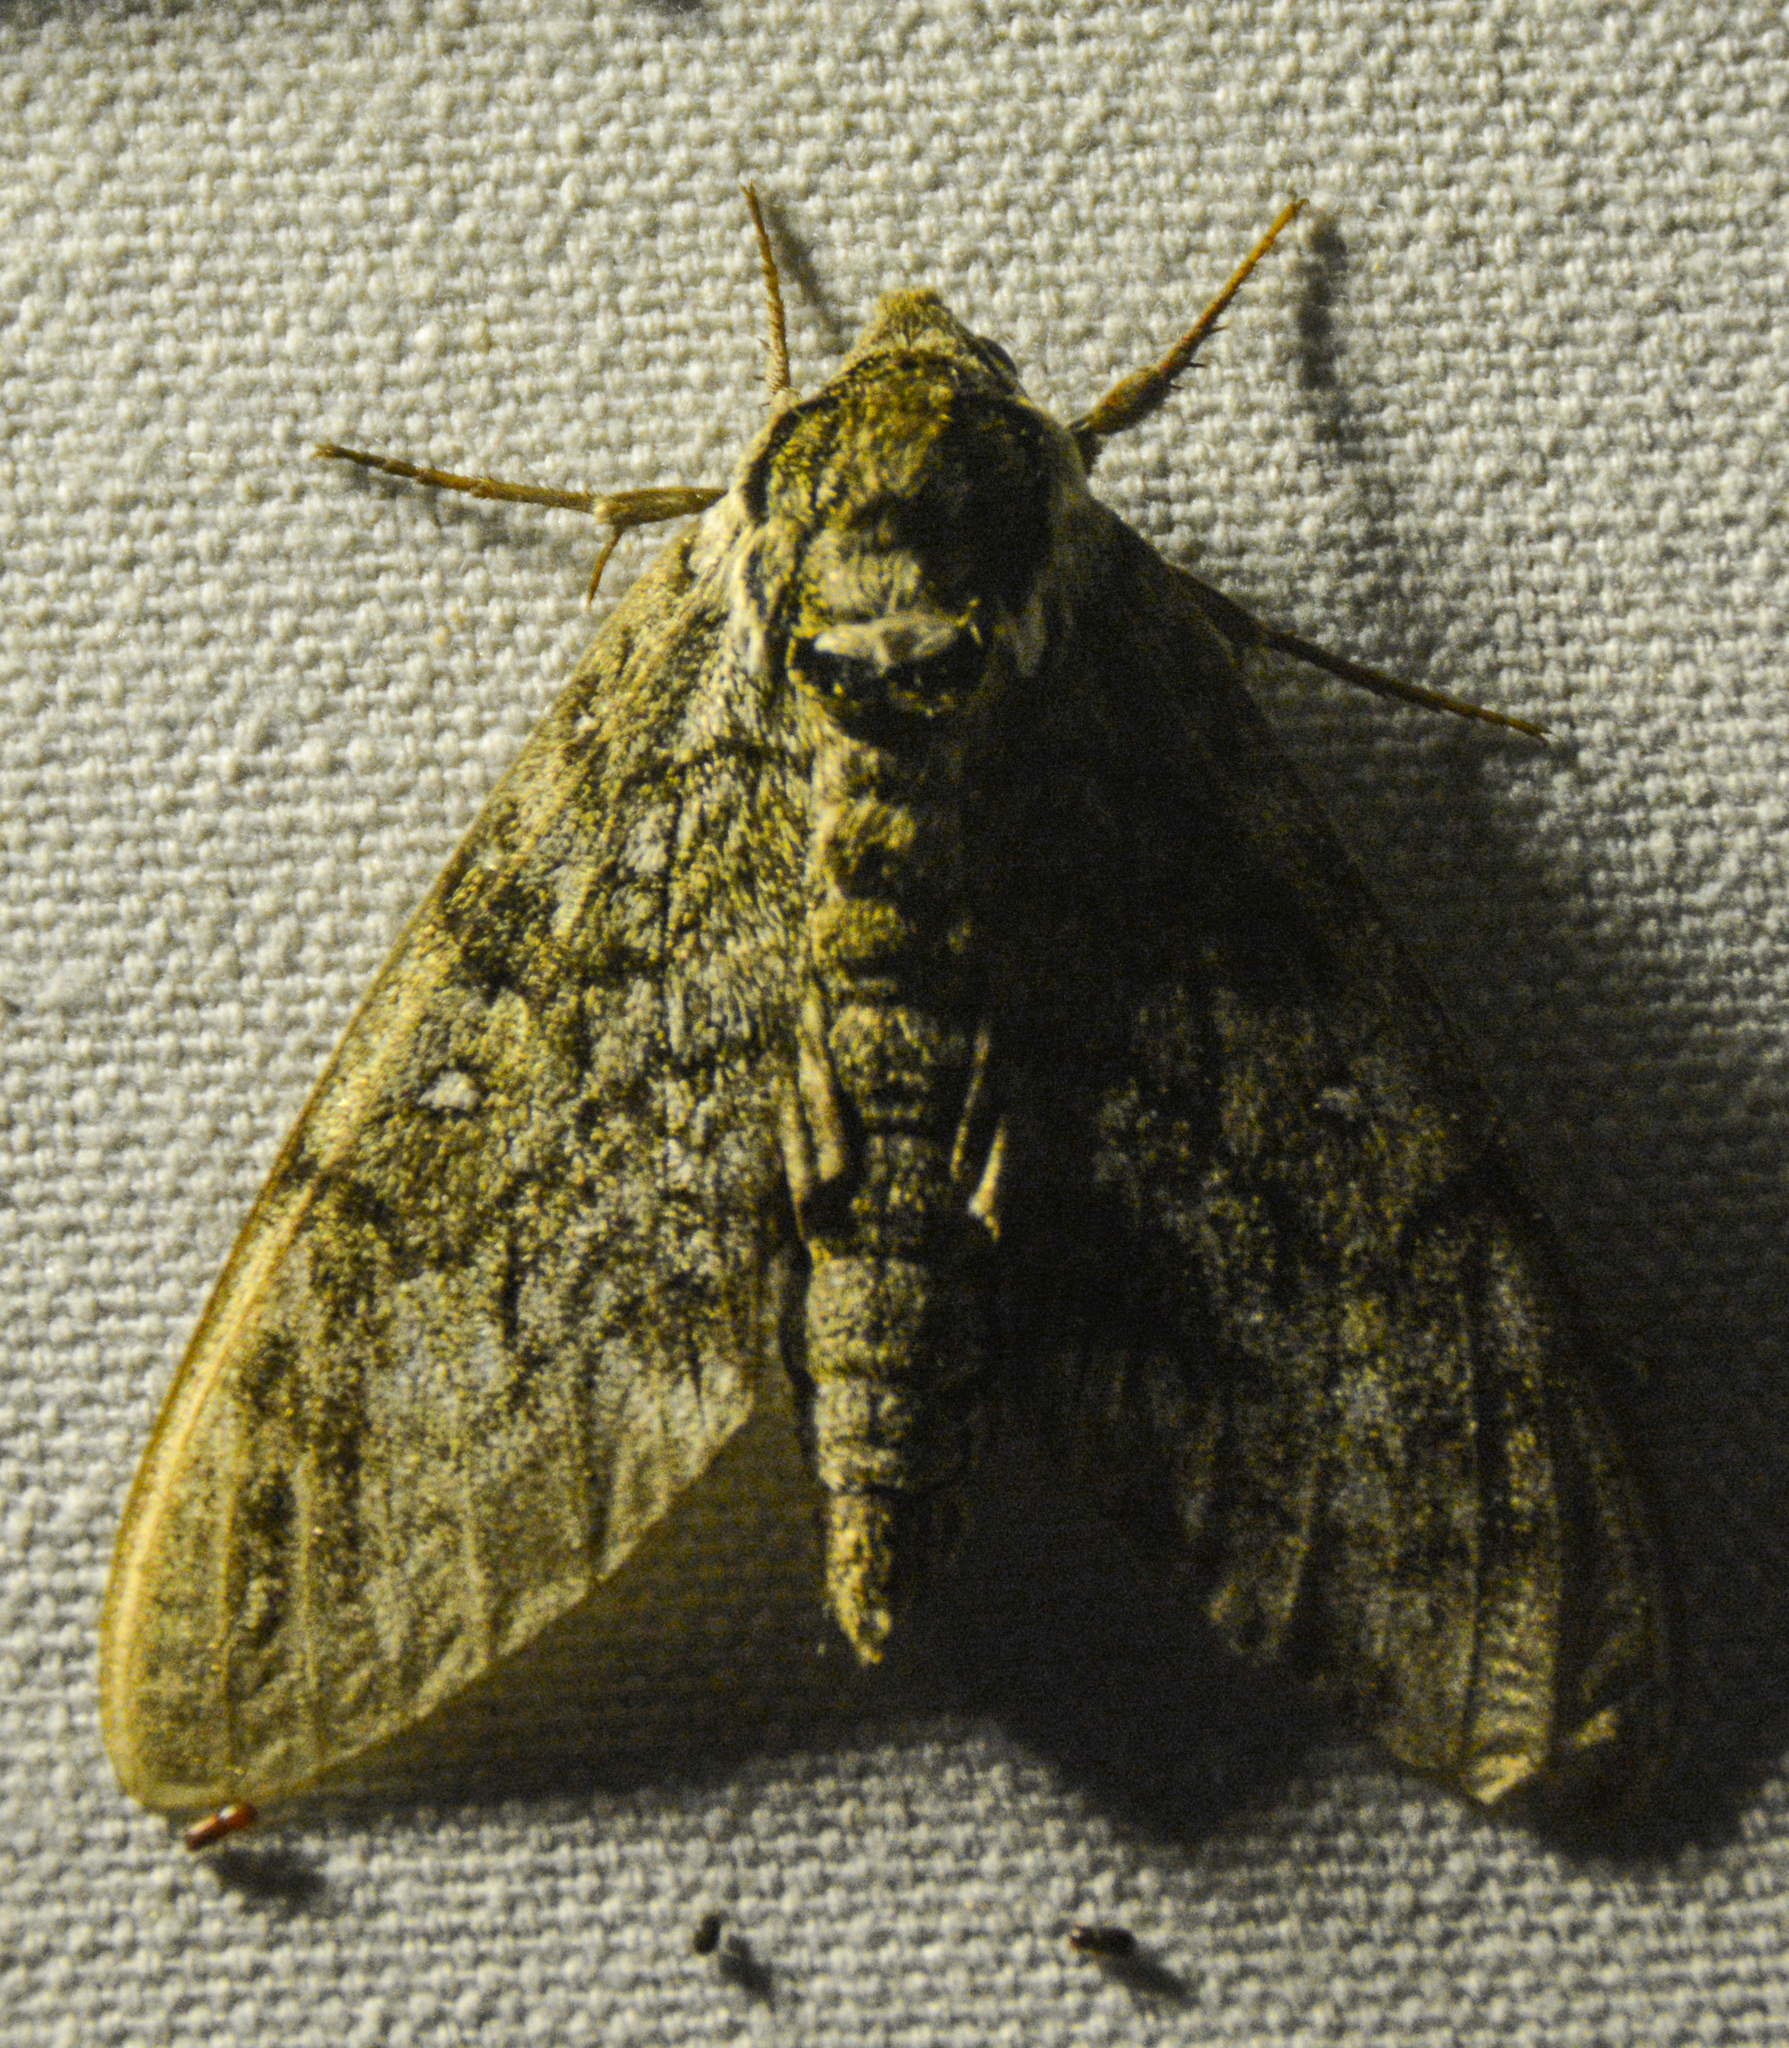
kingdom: Animalia
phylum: Arthropoda
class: Insecta
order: Lepidoptera
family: Sphingidae
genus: Ceratomia
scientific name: Ceratomia undulosa
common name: Waved sphinx
